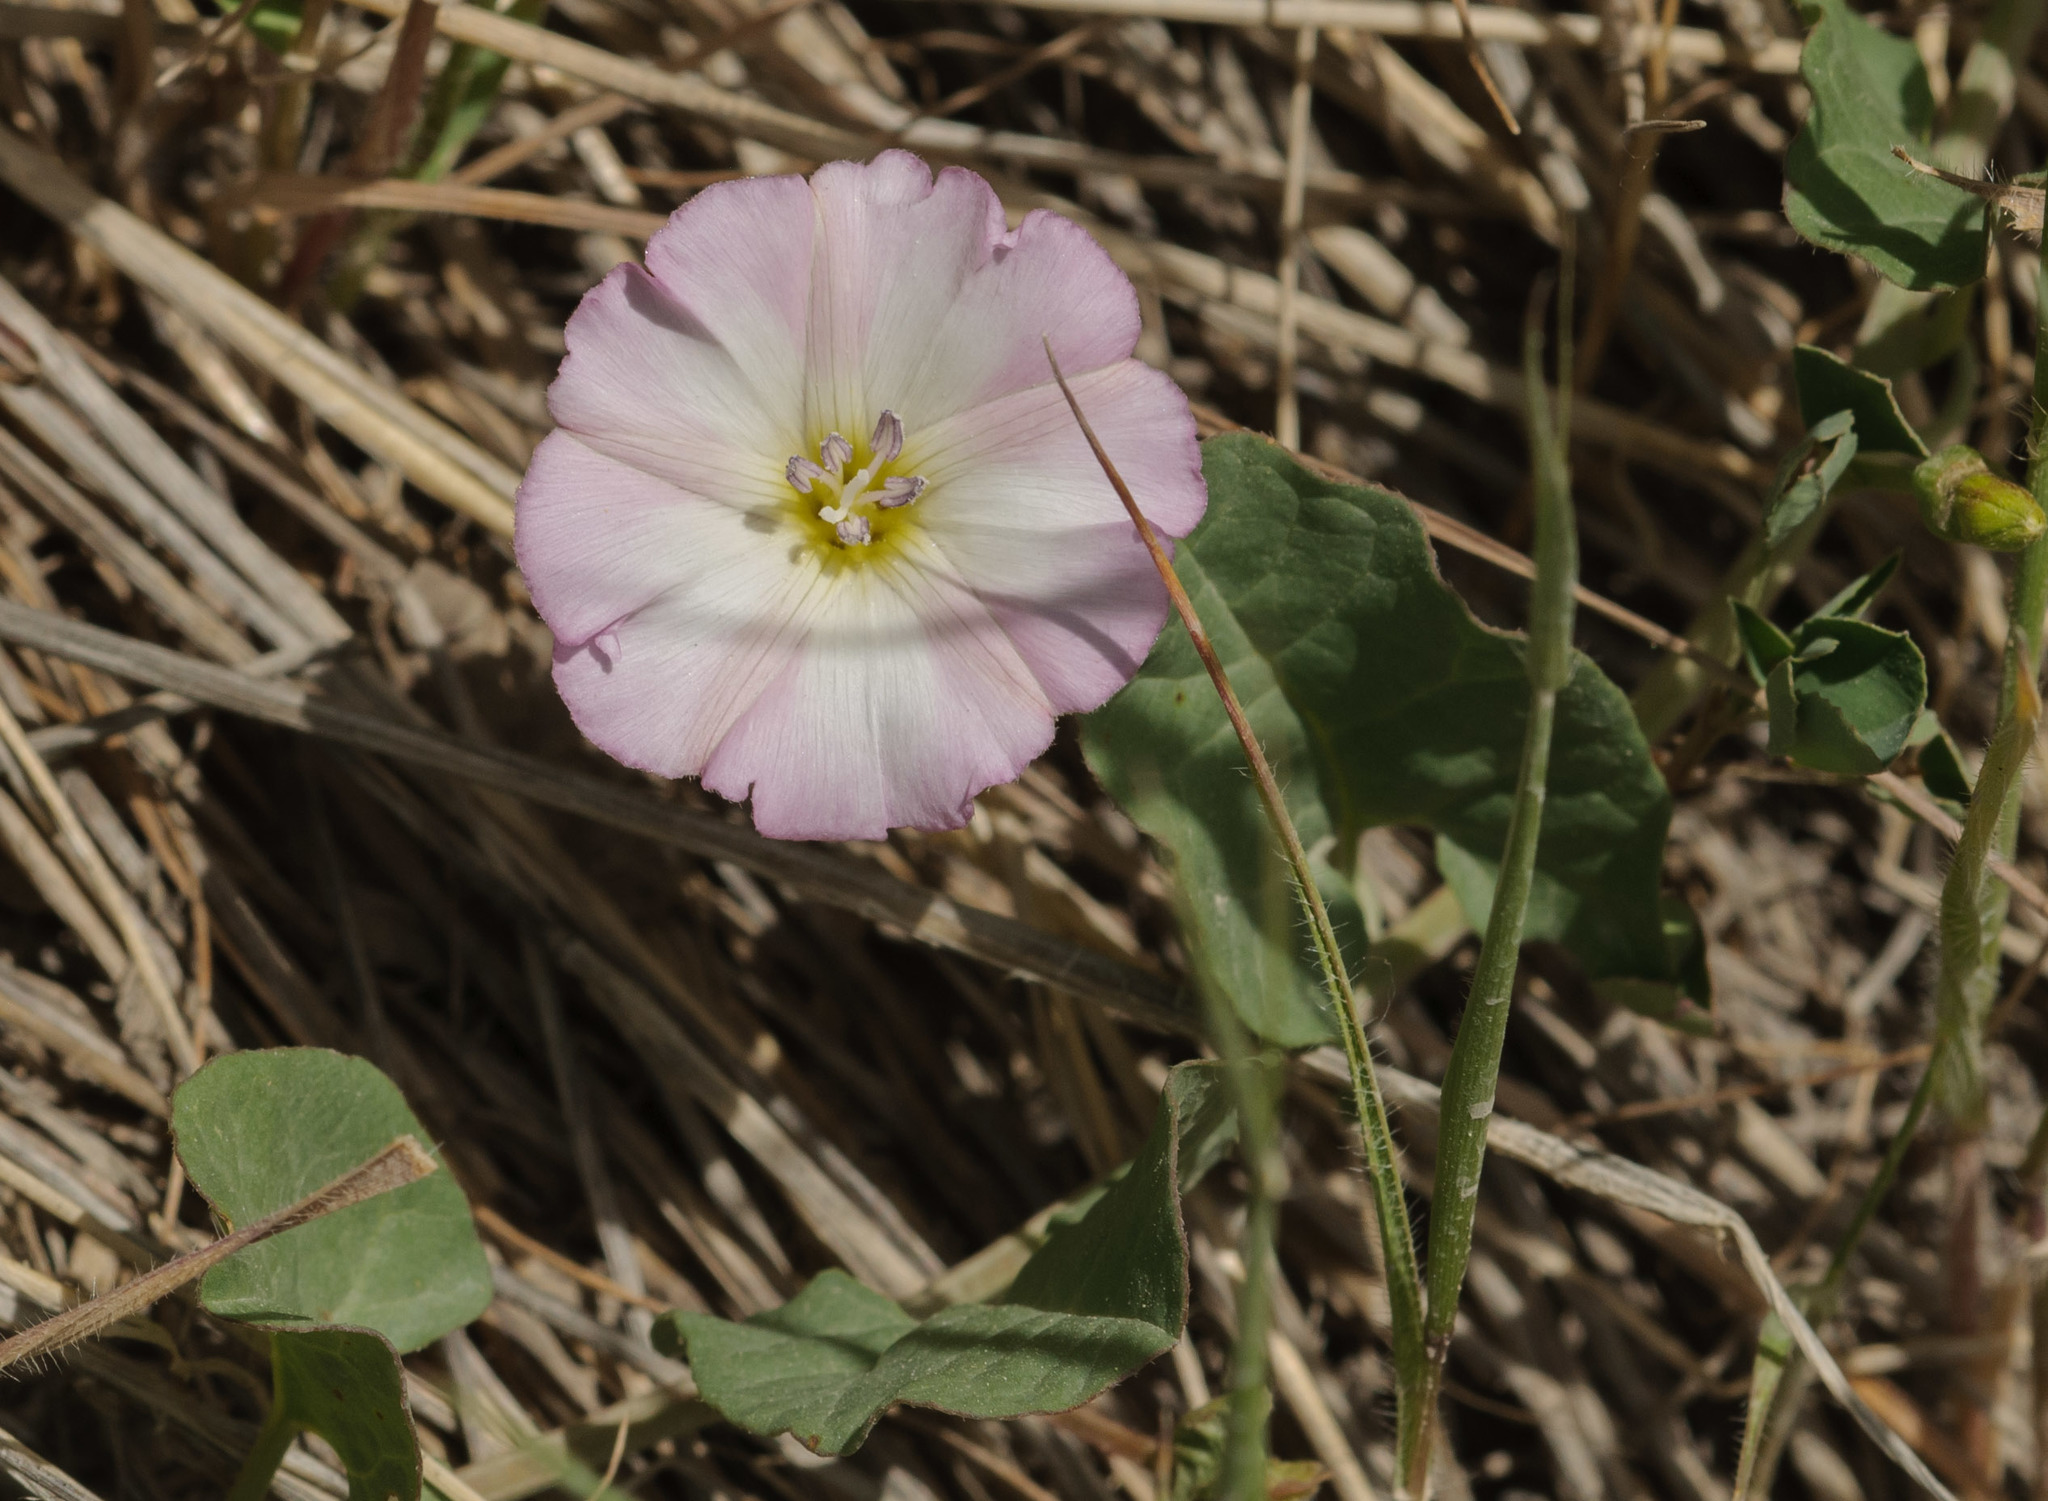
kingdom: Plantae
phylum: Tracheophyta
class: Magnoliopsida
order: Solanales
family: Convolvulaceae
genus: Convolvulus
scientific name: Convolvulus arvensis
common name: Field bindweed
